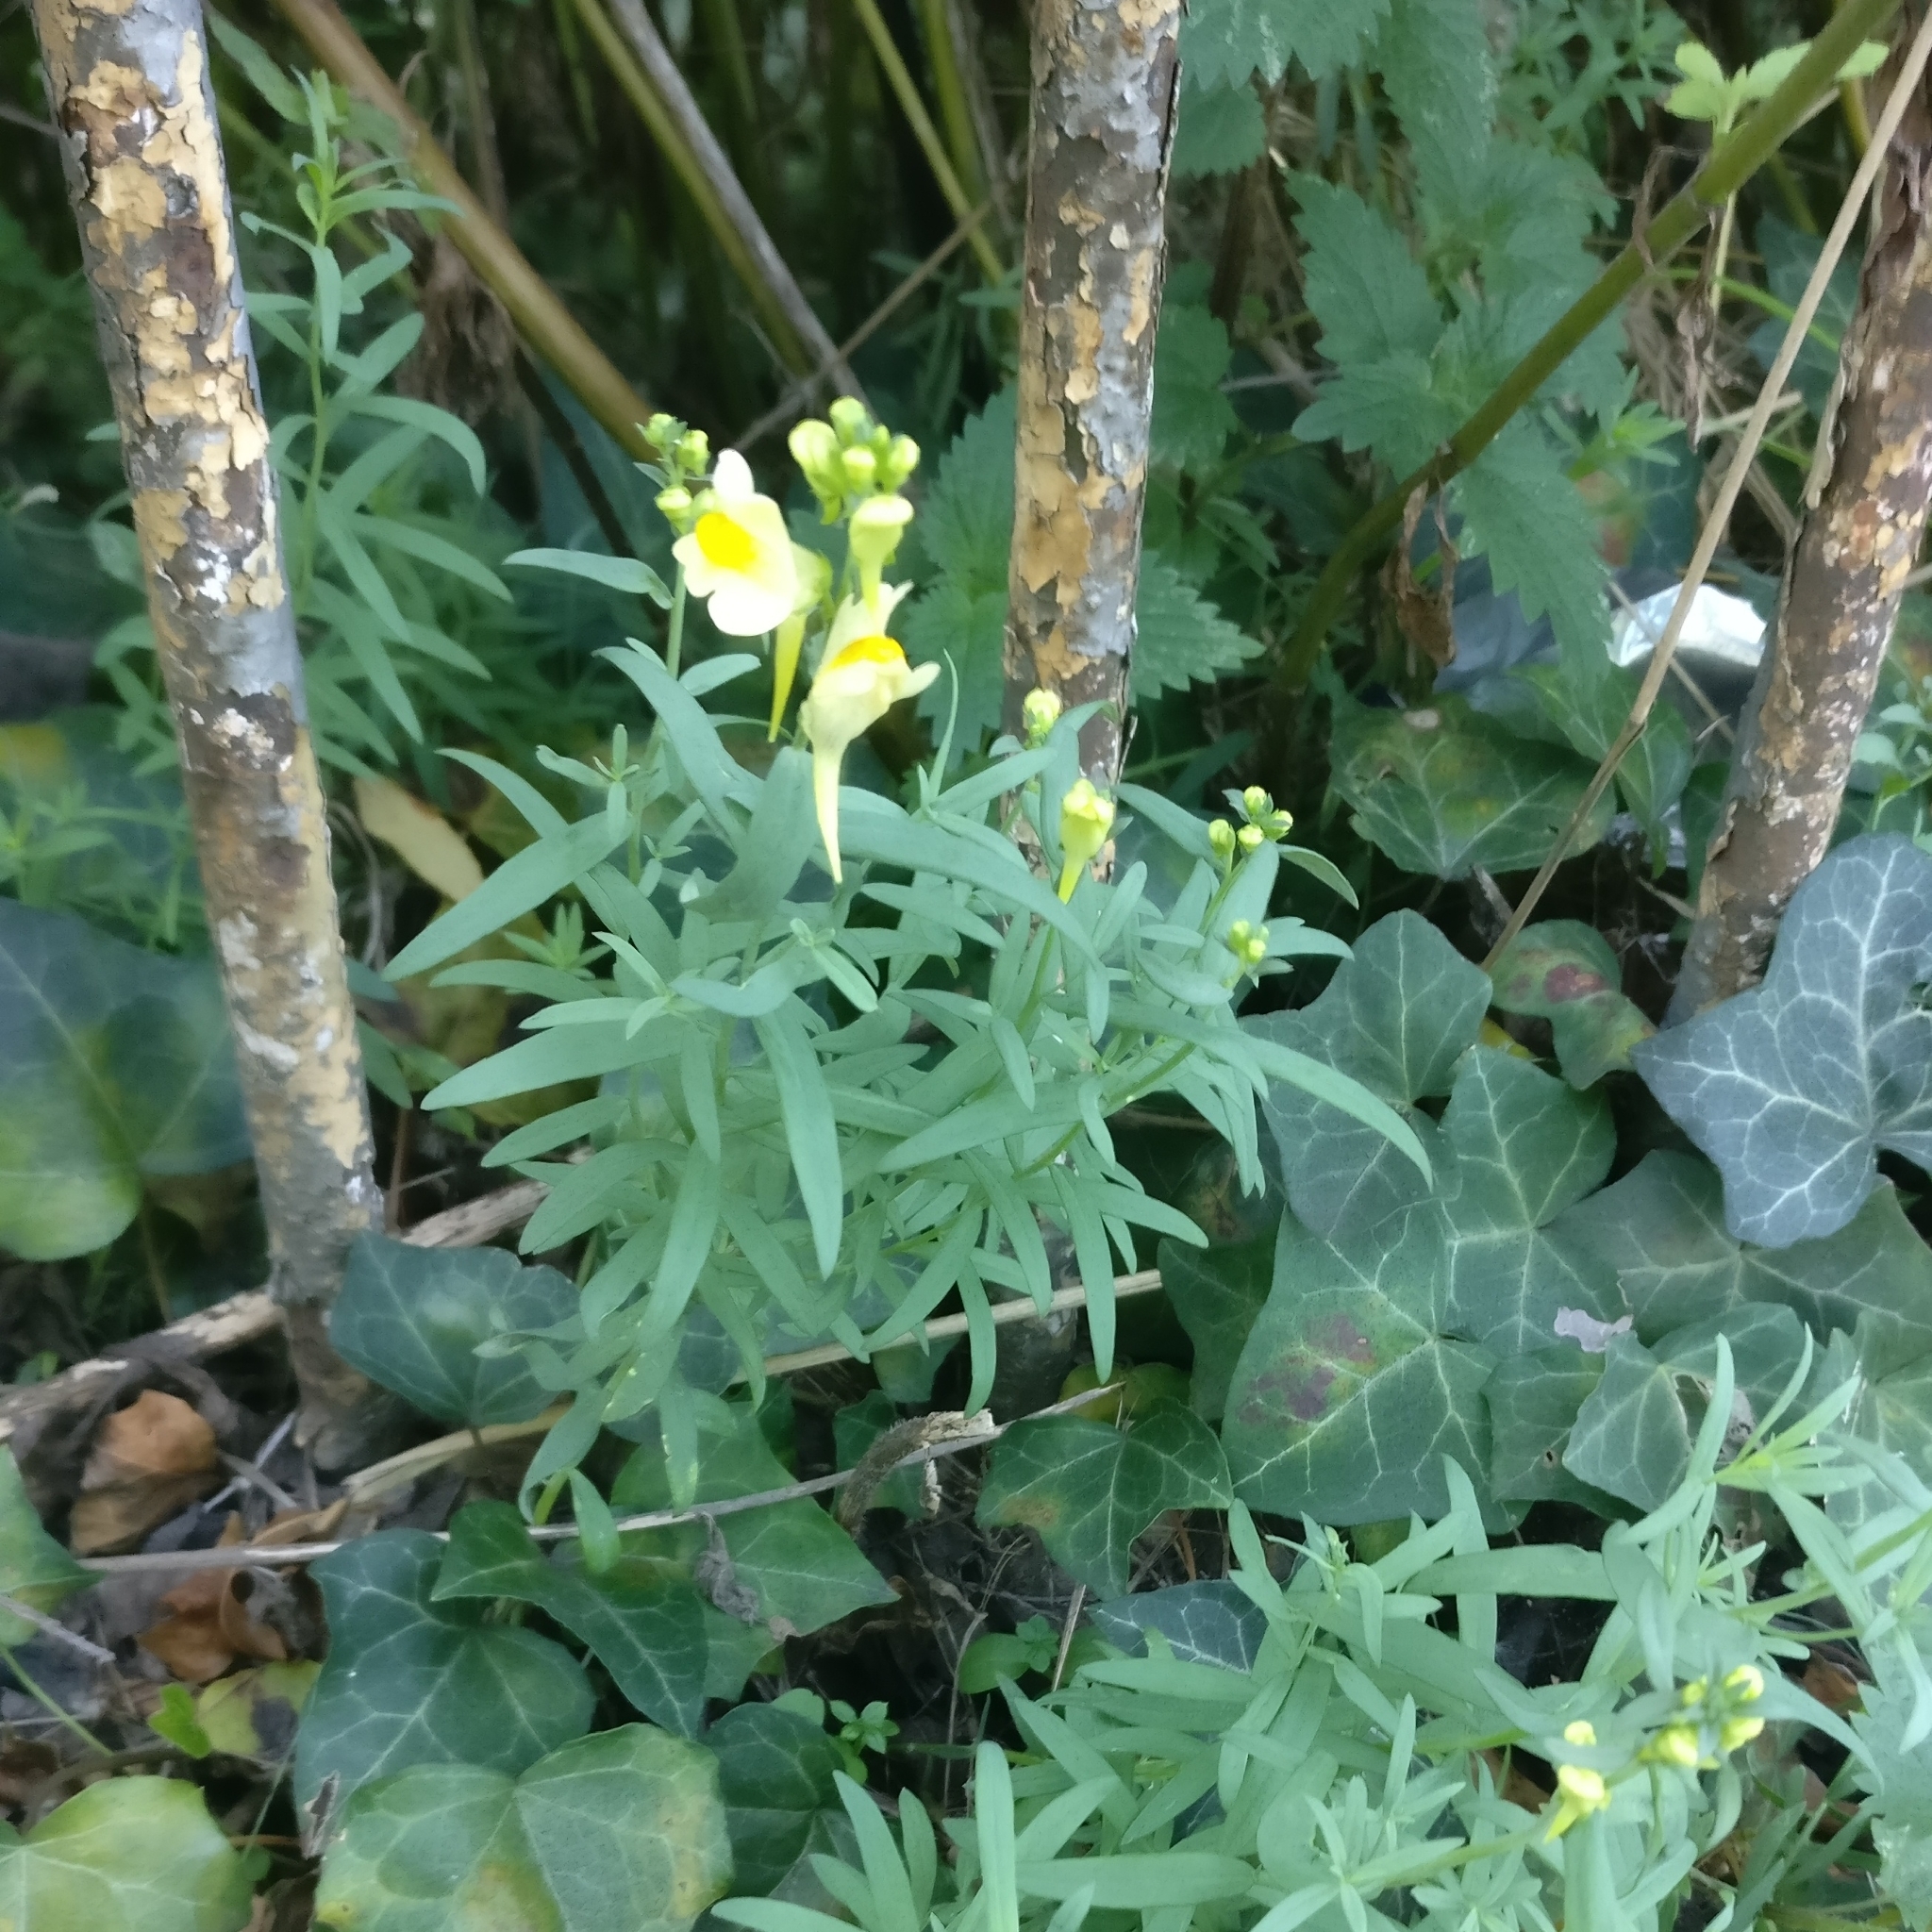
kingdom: Plantae
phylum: Tracheophyta
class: Magnoliopsida
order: Lamiales
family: Plantaginaceae
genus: Linaria
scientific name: Linaria vulgaris
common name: Butter and eggs
